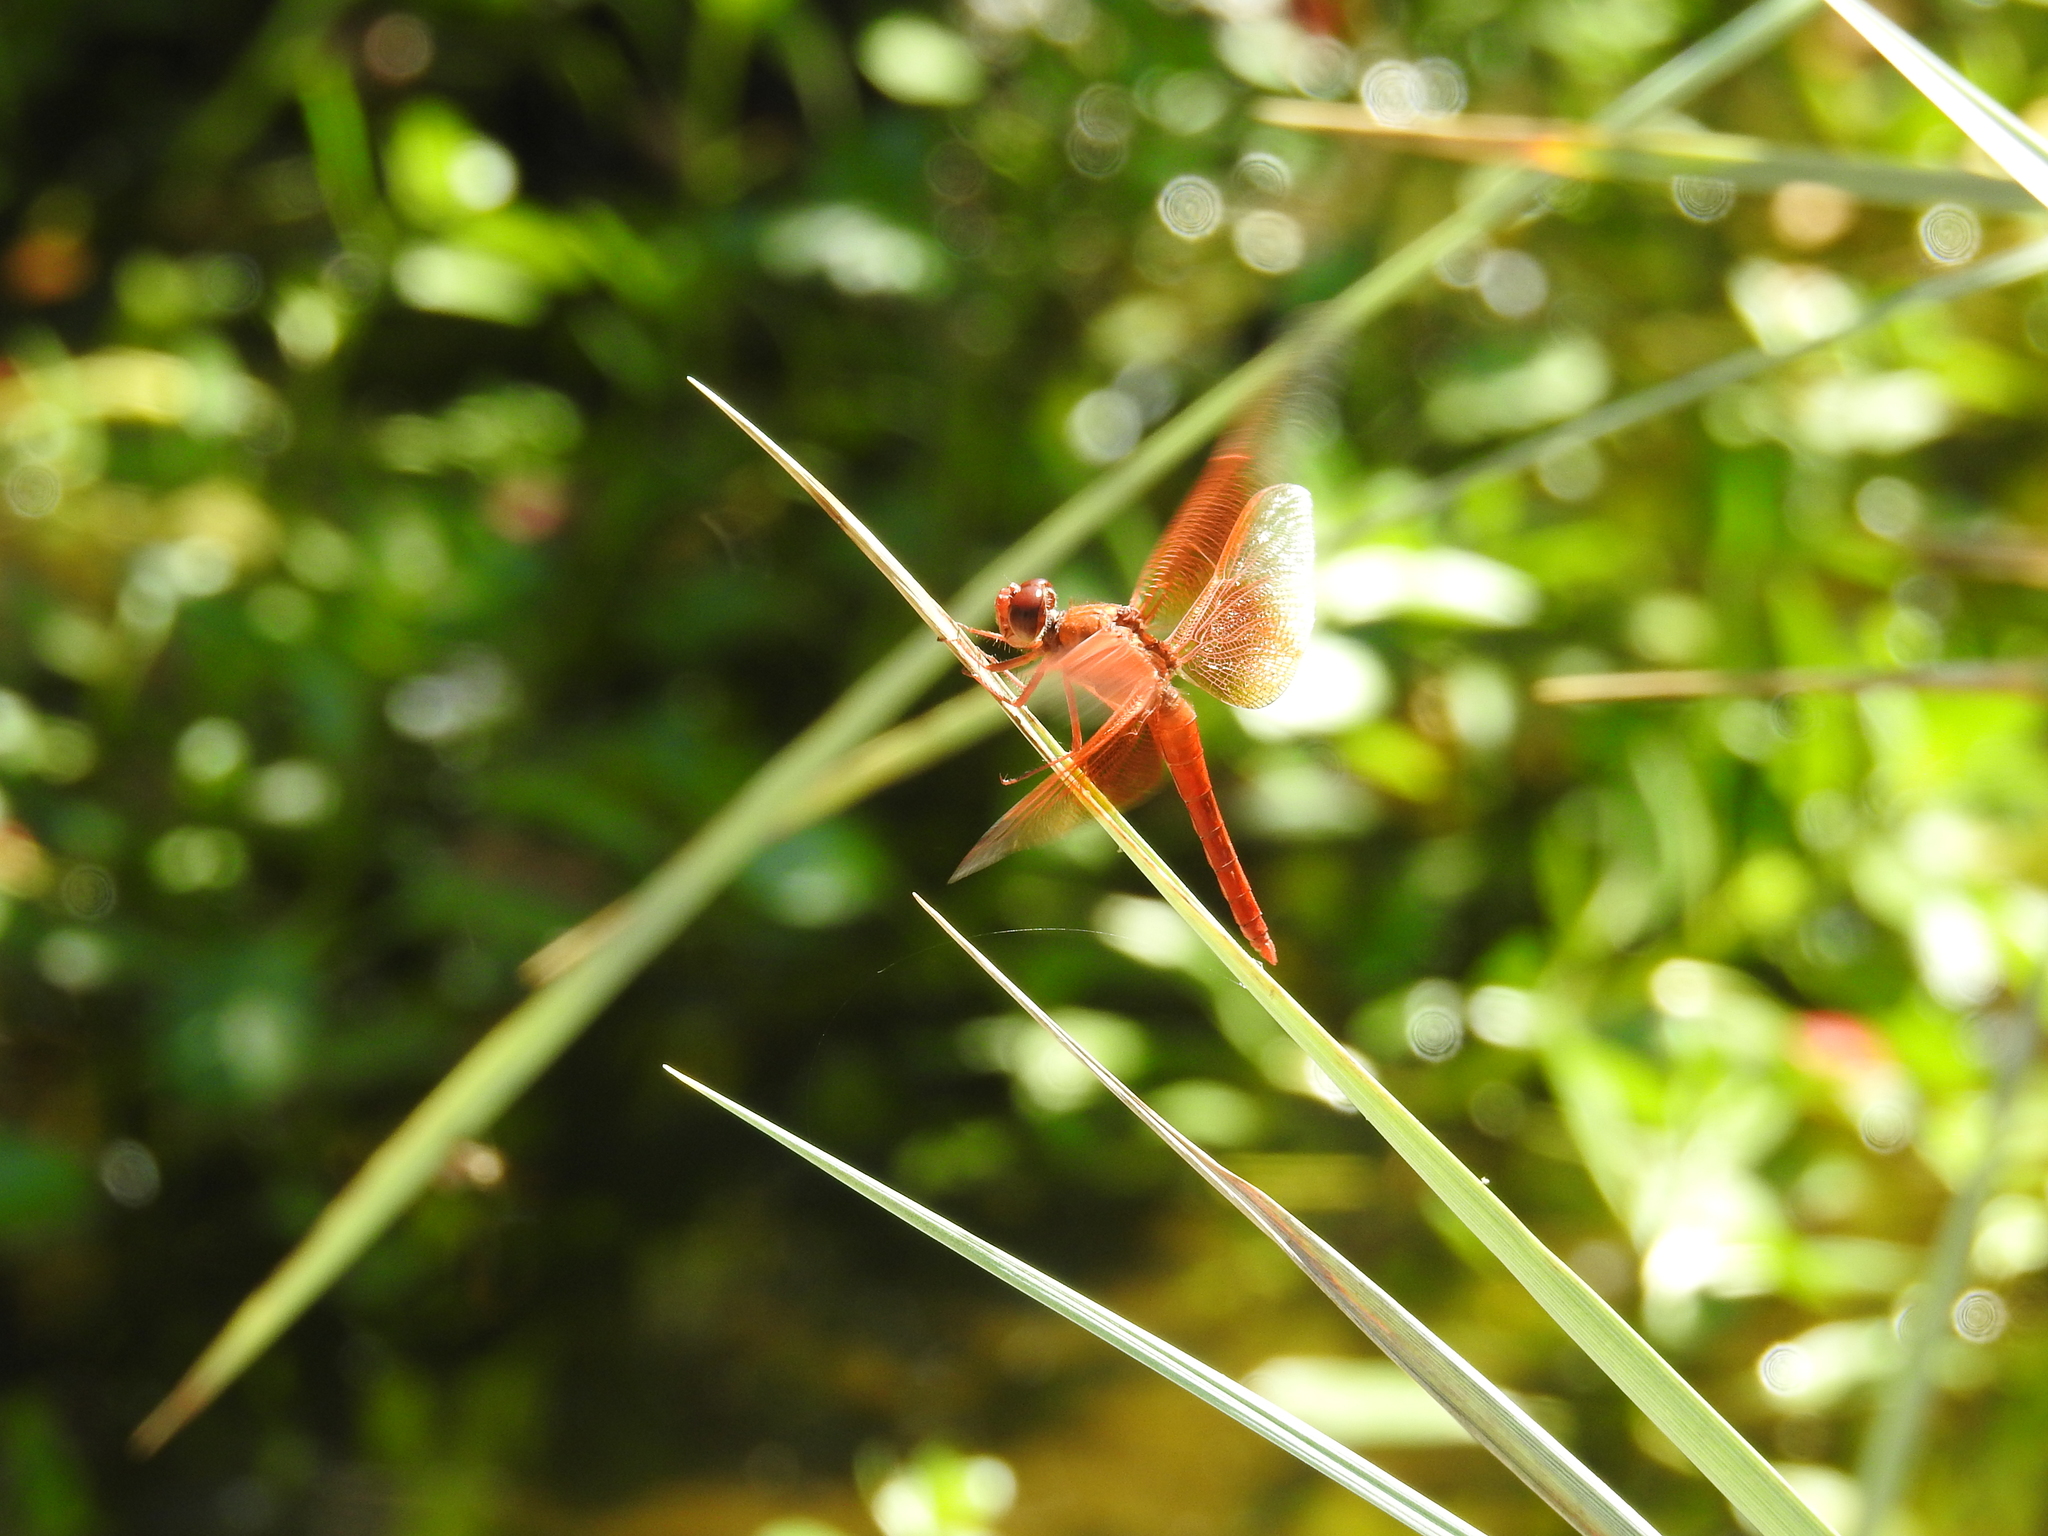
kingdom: Animalia
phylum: Arthropoda
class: Insecta
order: Odonata
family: Libellulidae
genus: Libellula
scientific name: Libellula saturata
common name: Flame skimmer
